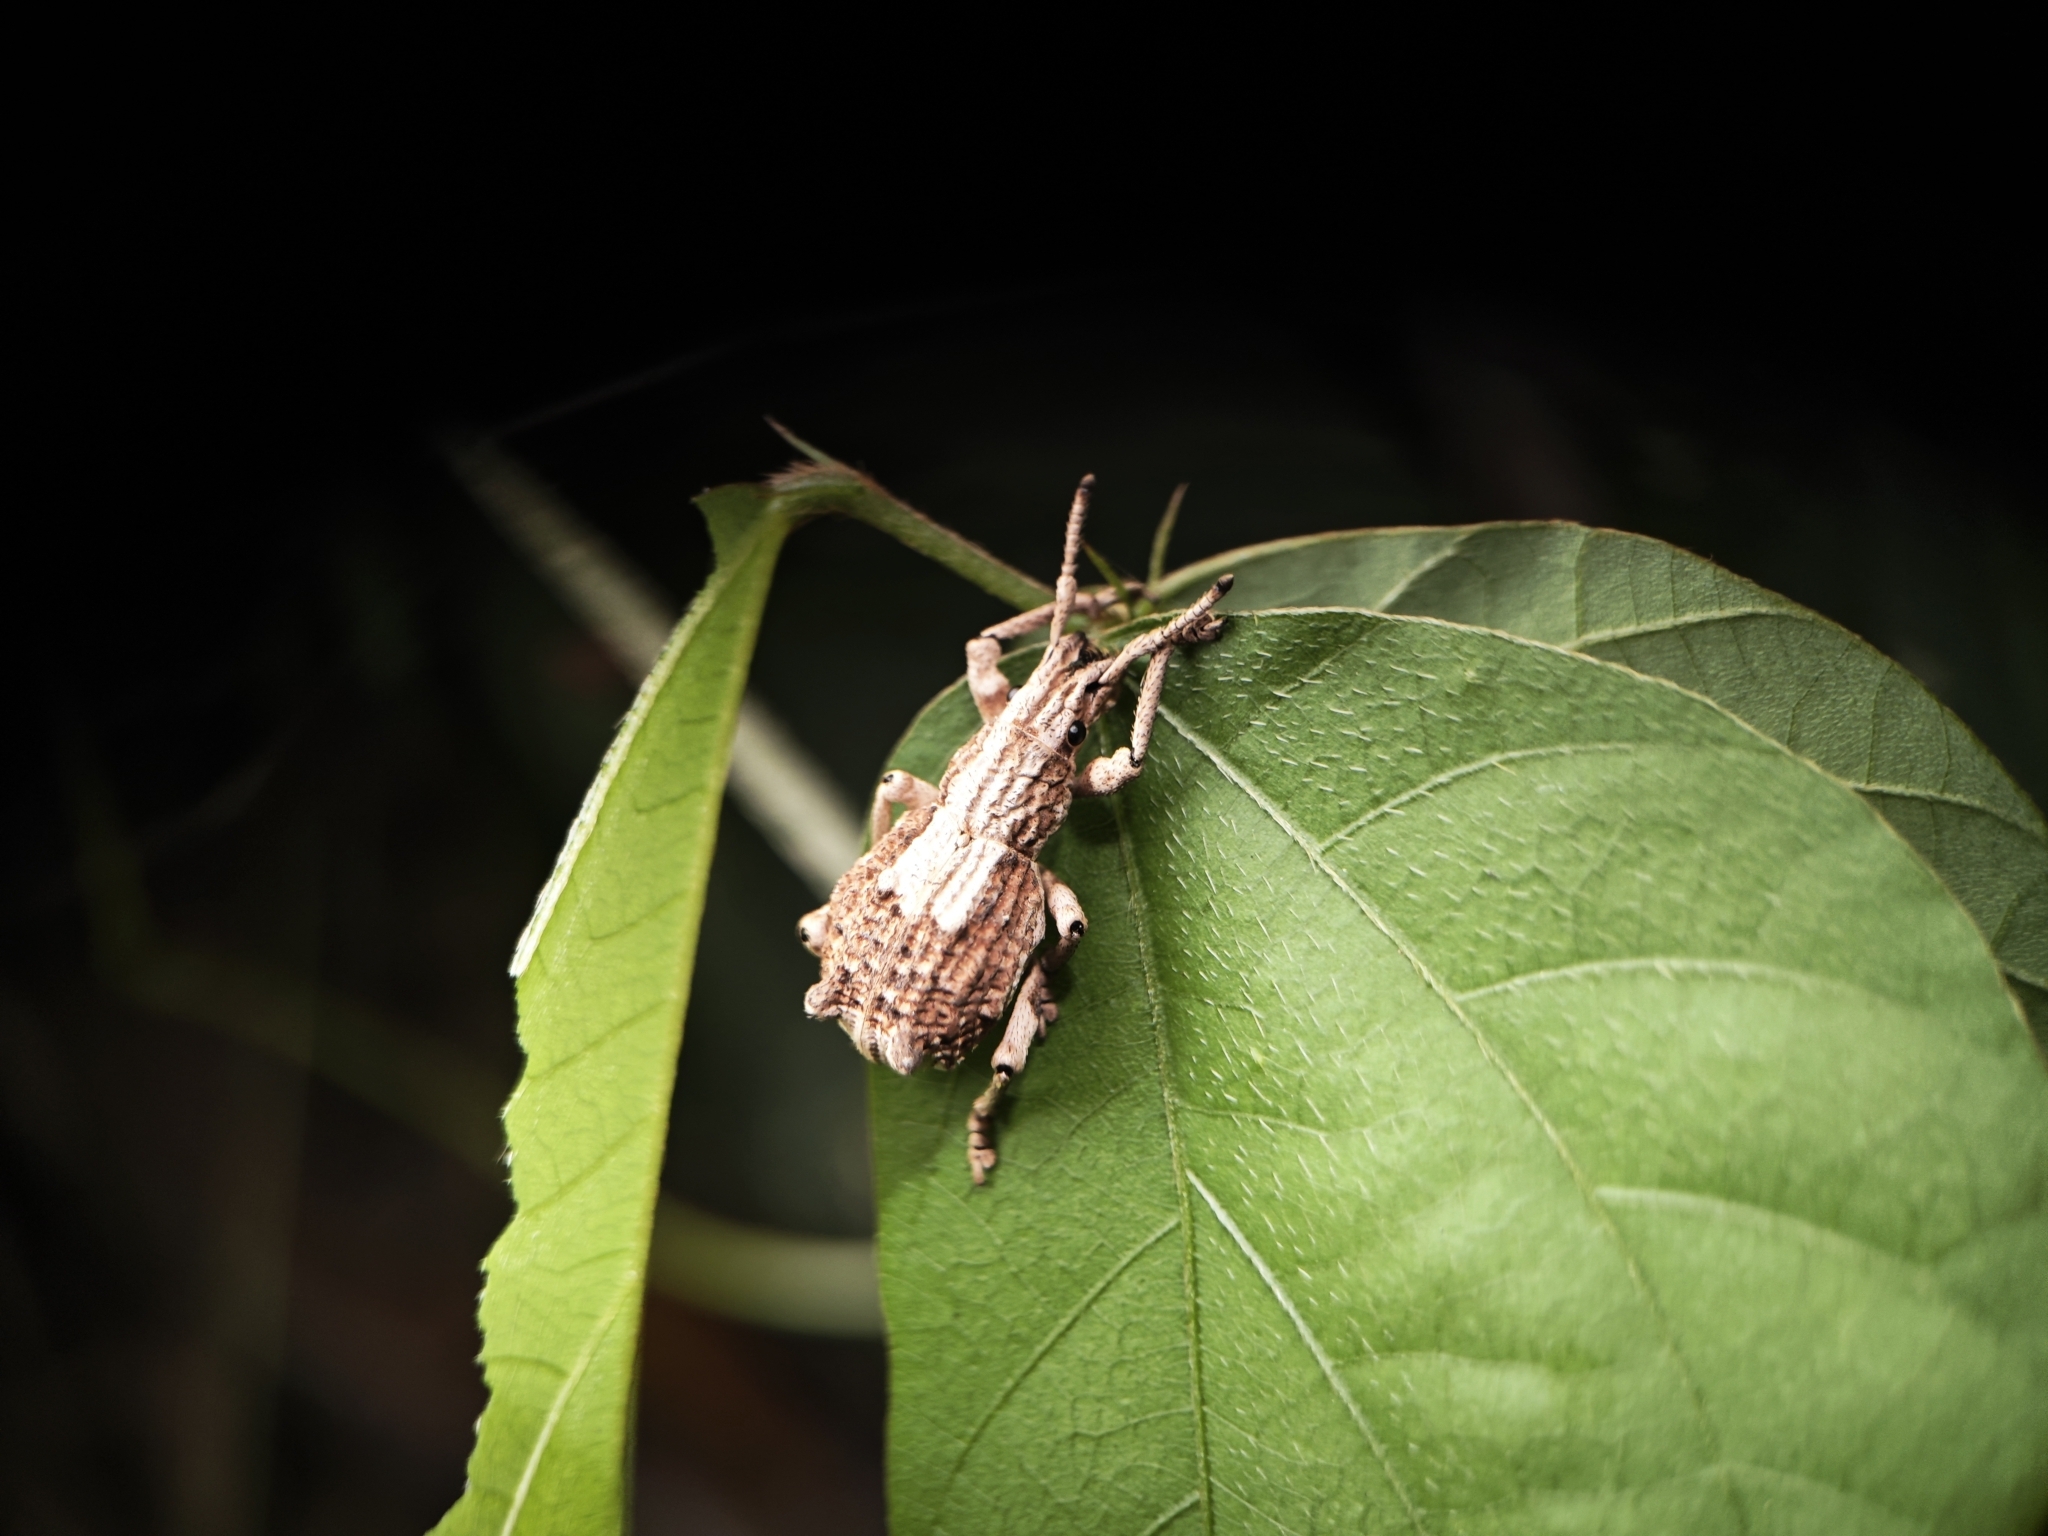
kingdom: Animalia
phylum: Arthropoda
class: Insecta
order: Coleoptera
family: Curculionidae
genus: Episomus
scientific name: Episomus
